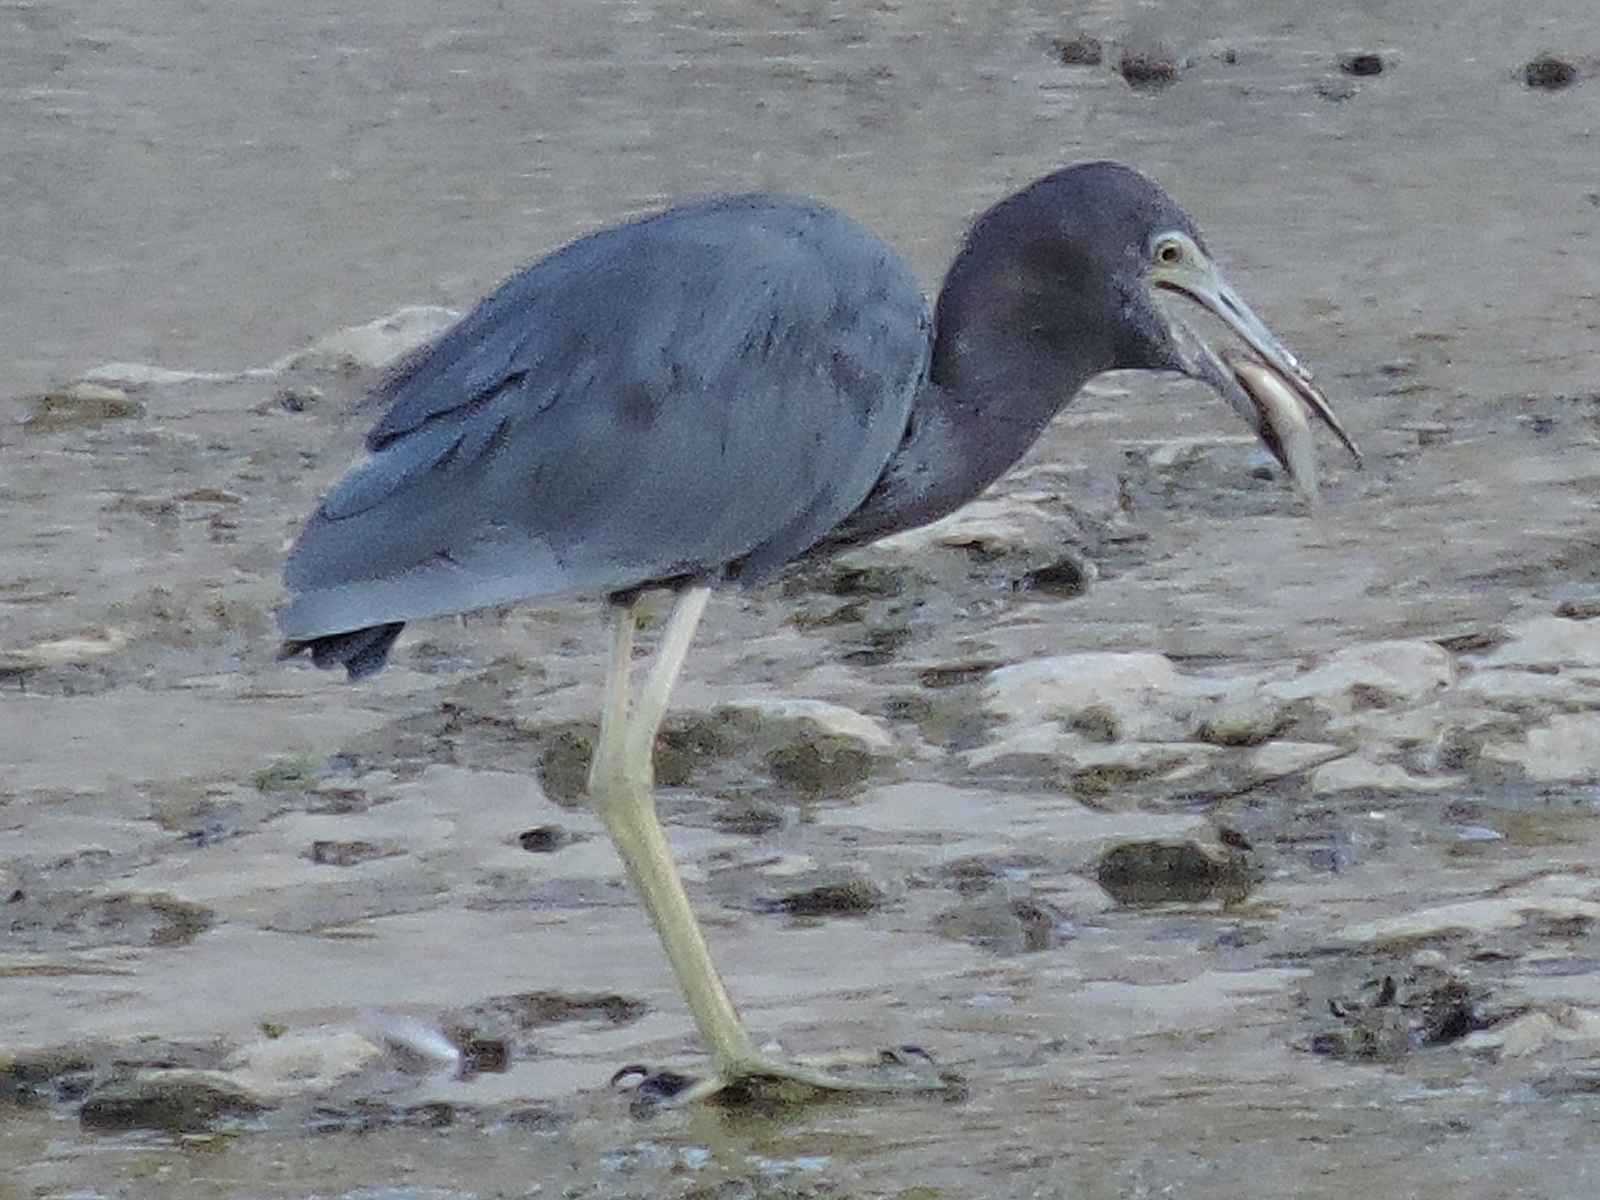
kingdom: Animalia
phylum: Chordata
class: Aves
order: Pelecaniformes
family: Ardeidae
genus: Egretta
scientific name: Egretta caerulea
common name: Little blue heron
